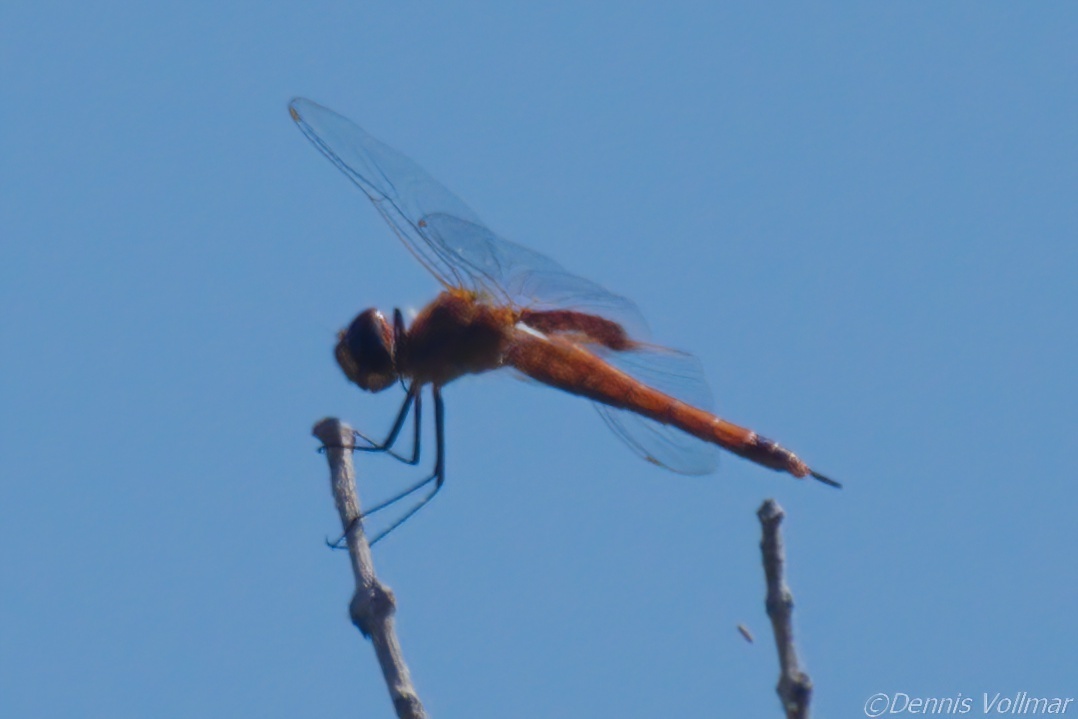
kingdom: Animalia
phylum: Arthropoda
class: Insecta
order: Odonata
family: Libellulidae
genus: Tramea
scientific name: Tramea insularis
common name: Antillean saddlebags
